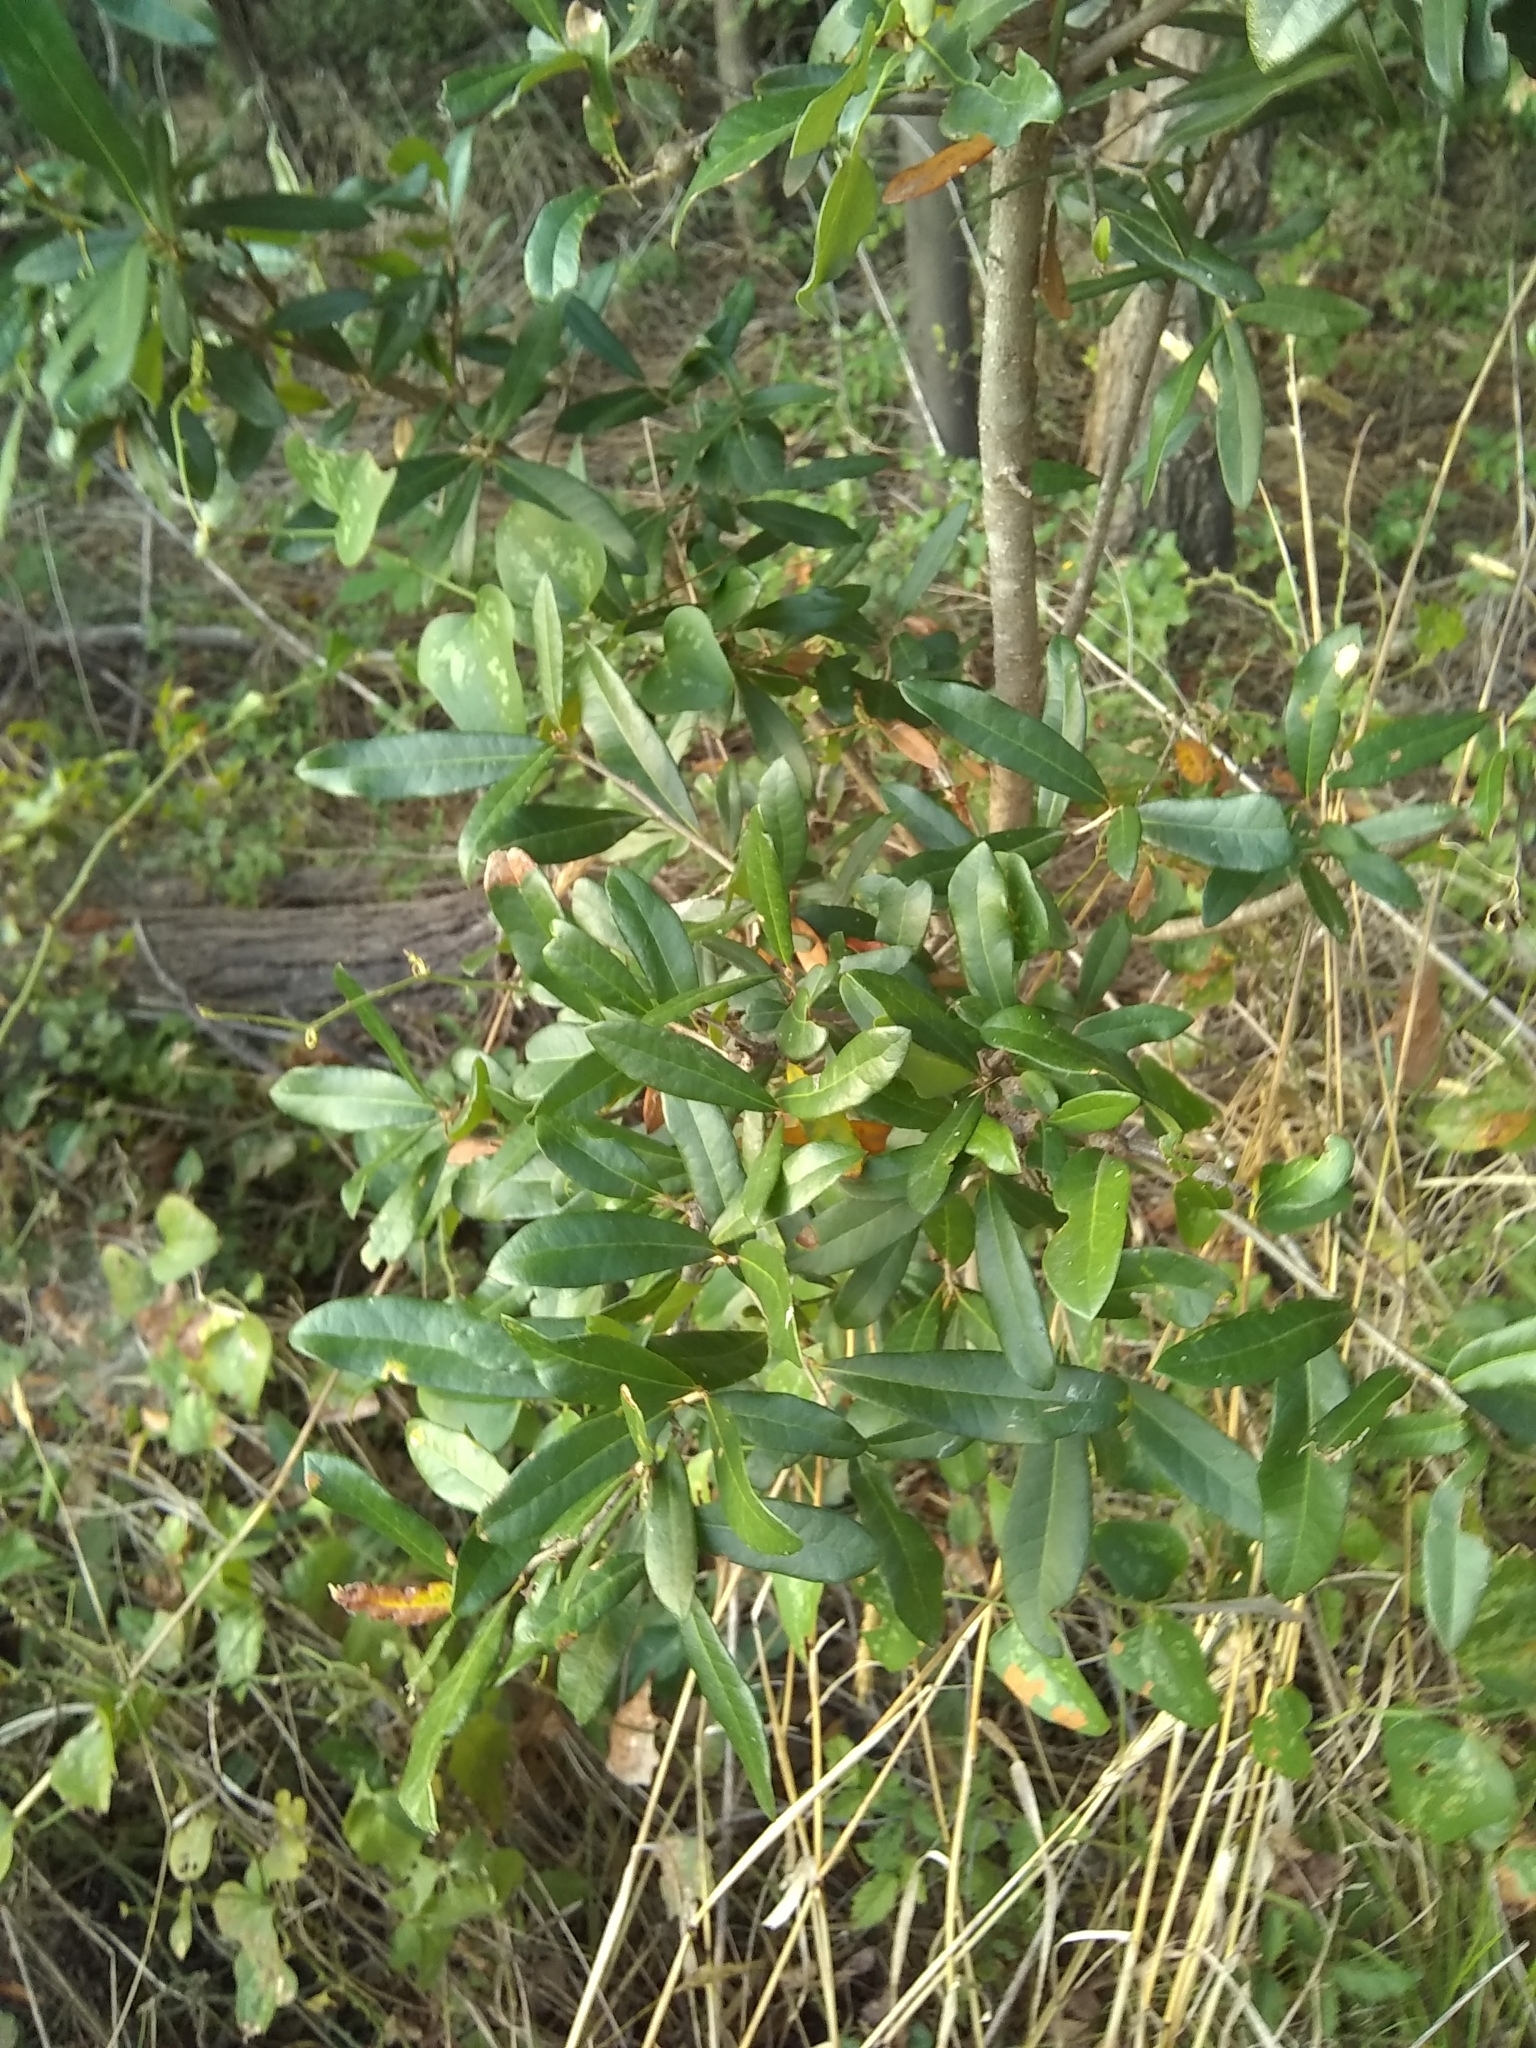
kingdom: Plantae
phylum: Tracheophyta
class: Magnoliopsida
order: Fagales
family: Fagaceae
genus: Quercus
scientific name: Quercus virginiana
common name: Southern live oak
